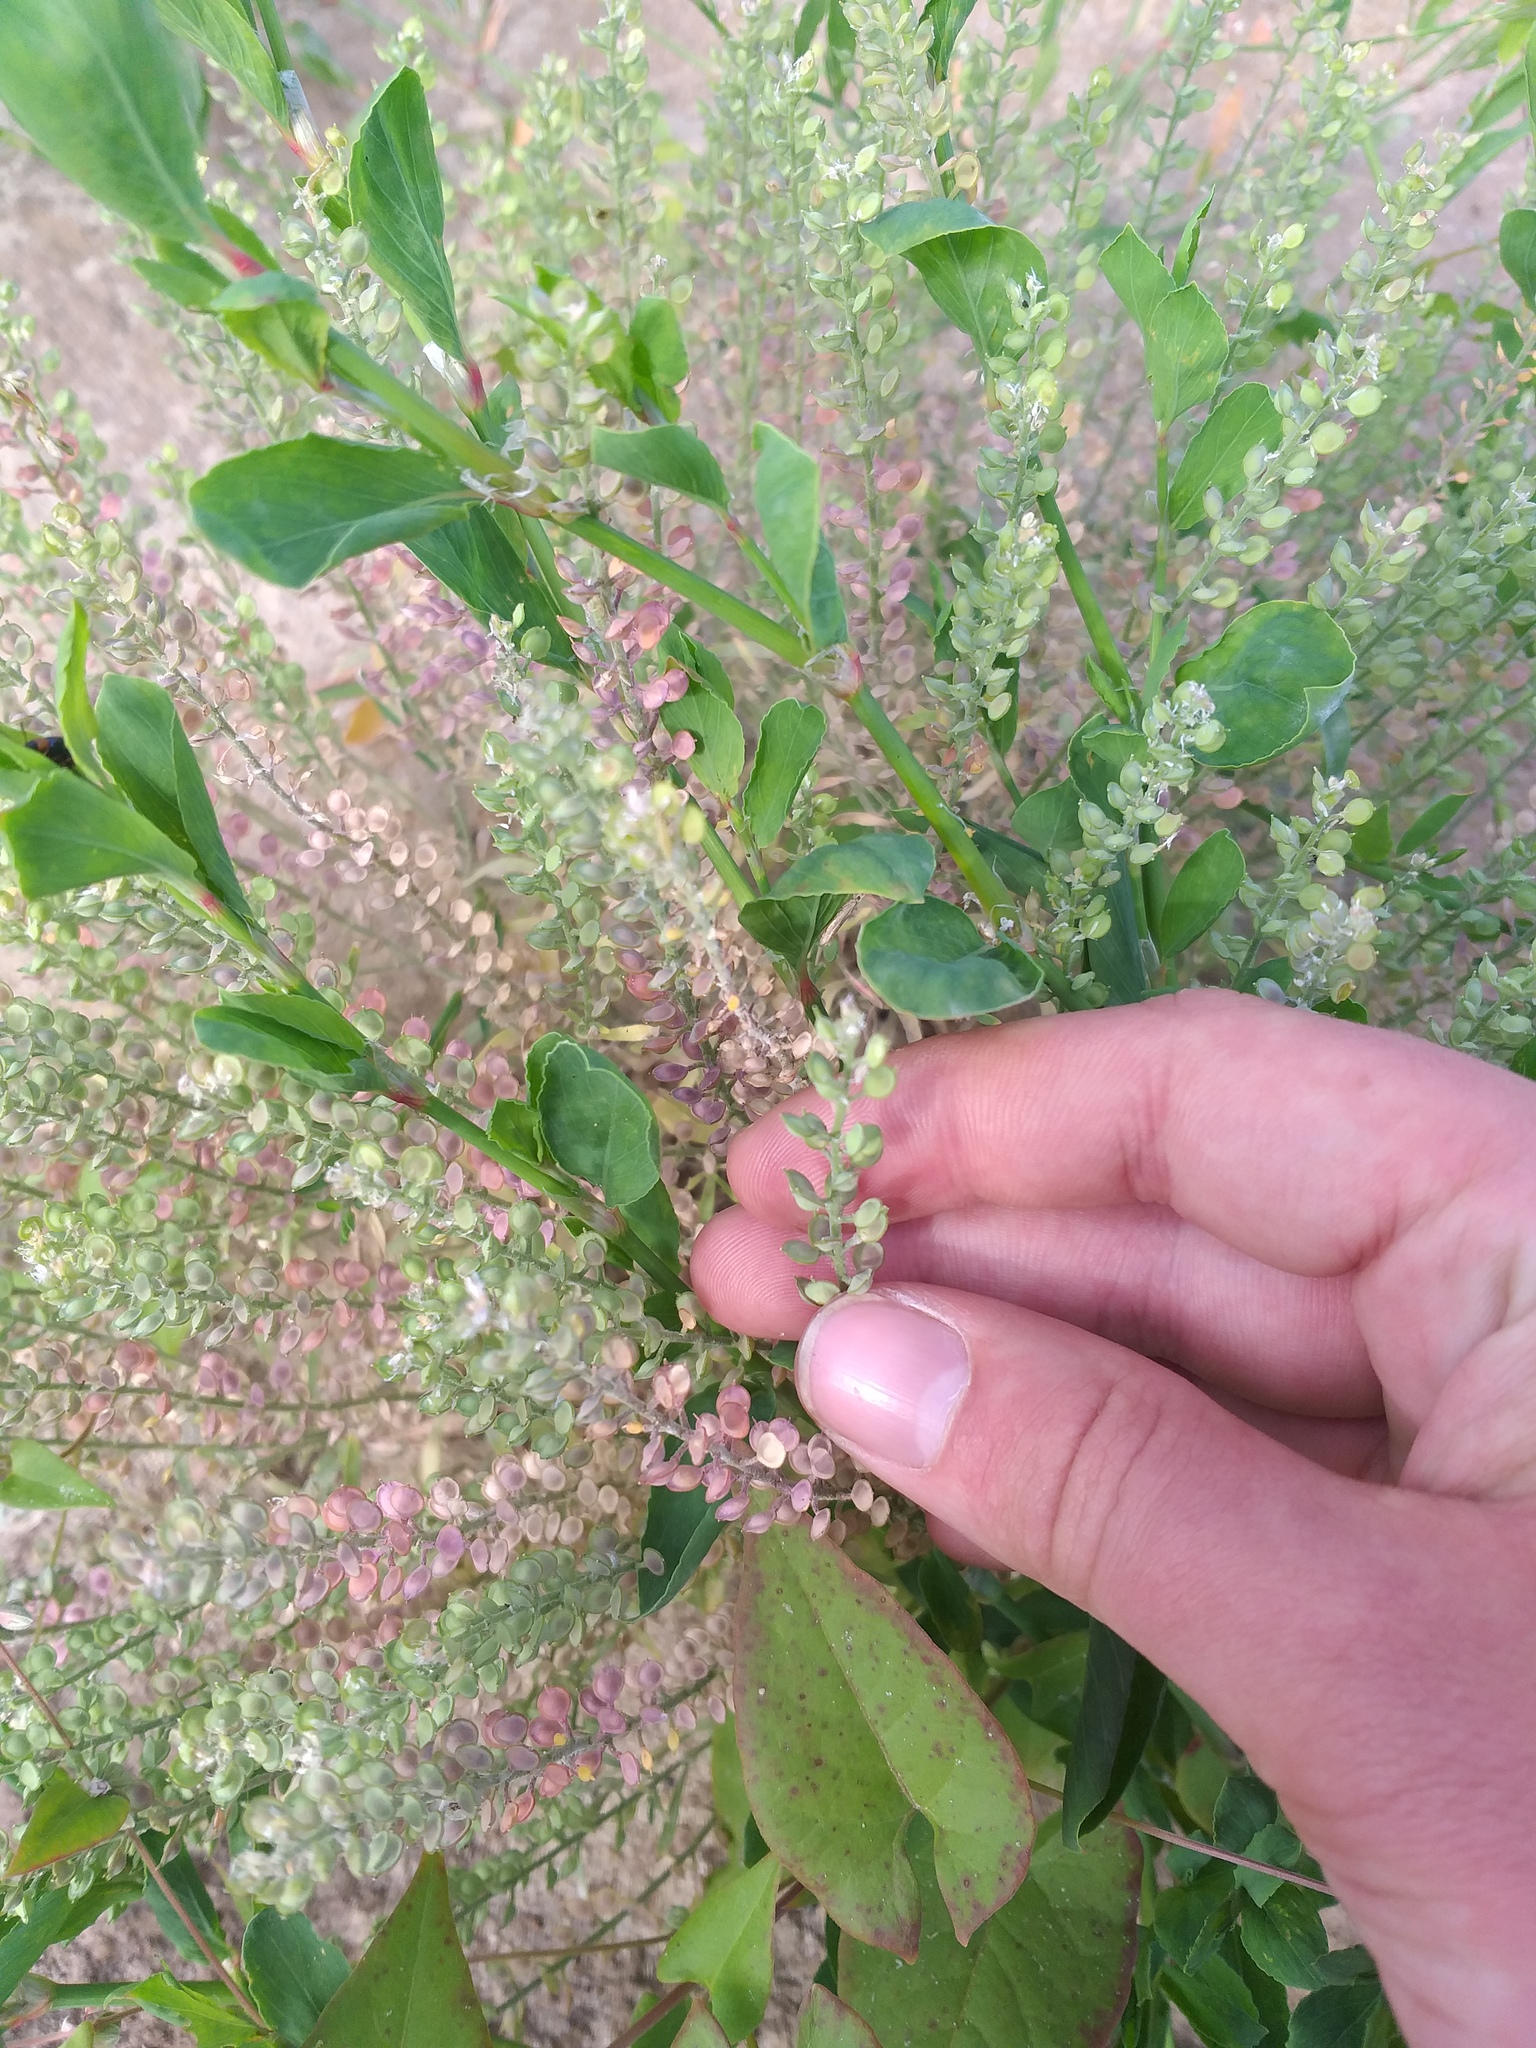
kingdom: Plantae
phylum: Tracheophyta
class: Magnoliopsida
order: Brassicales
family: Brassicaceae
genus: Alyssum
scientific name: Alyssum turkestanicum
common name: Desert alyssum
